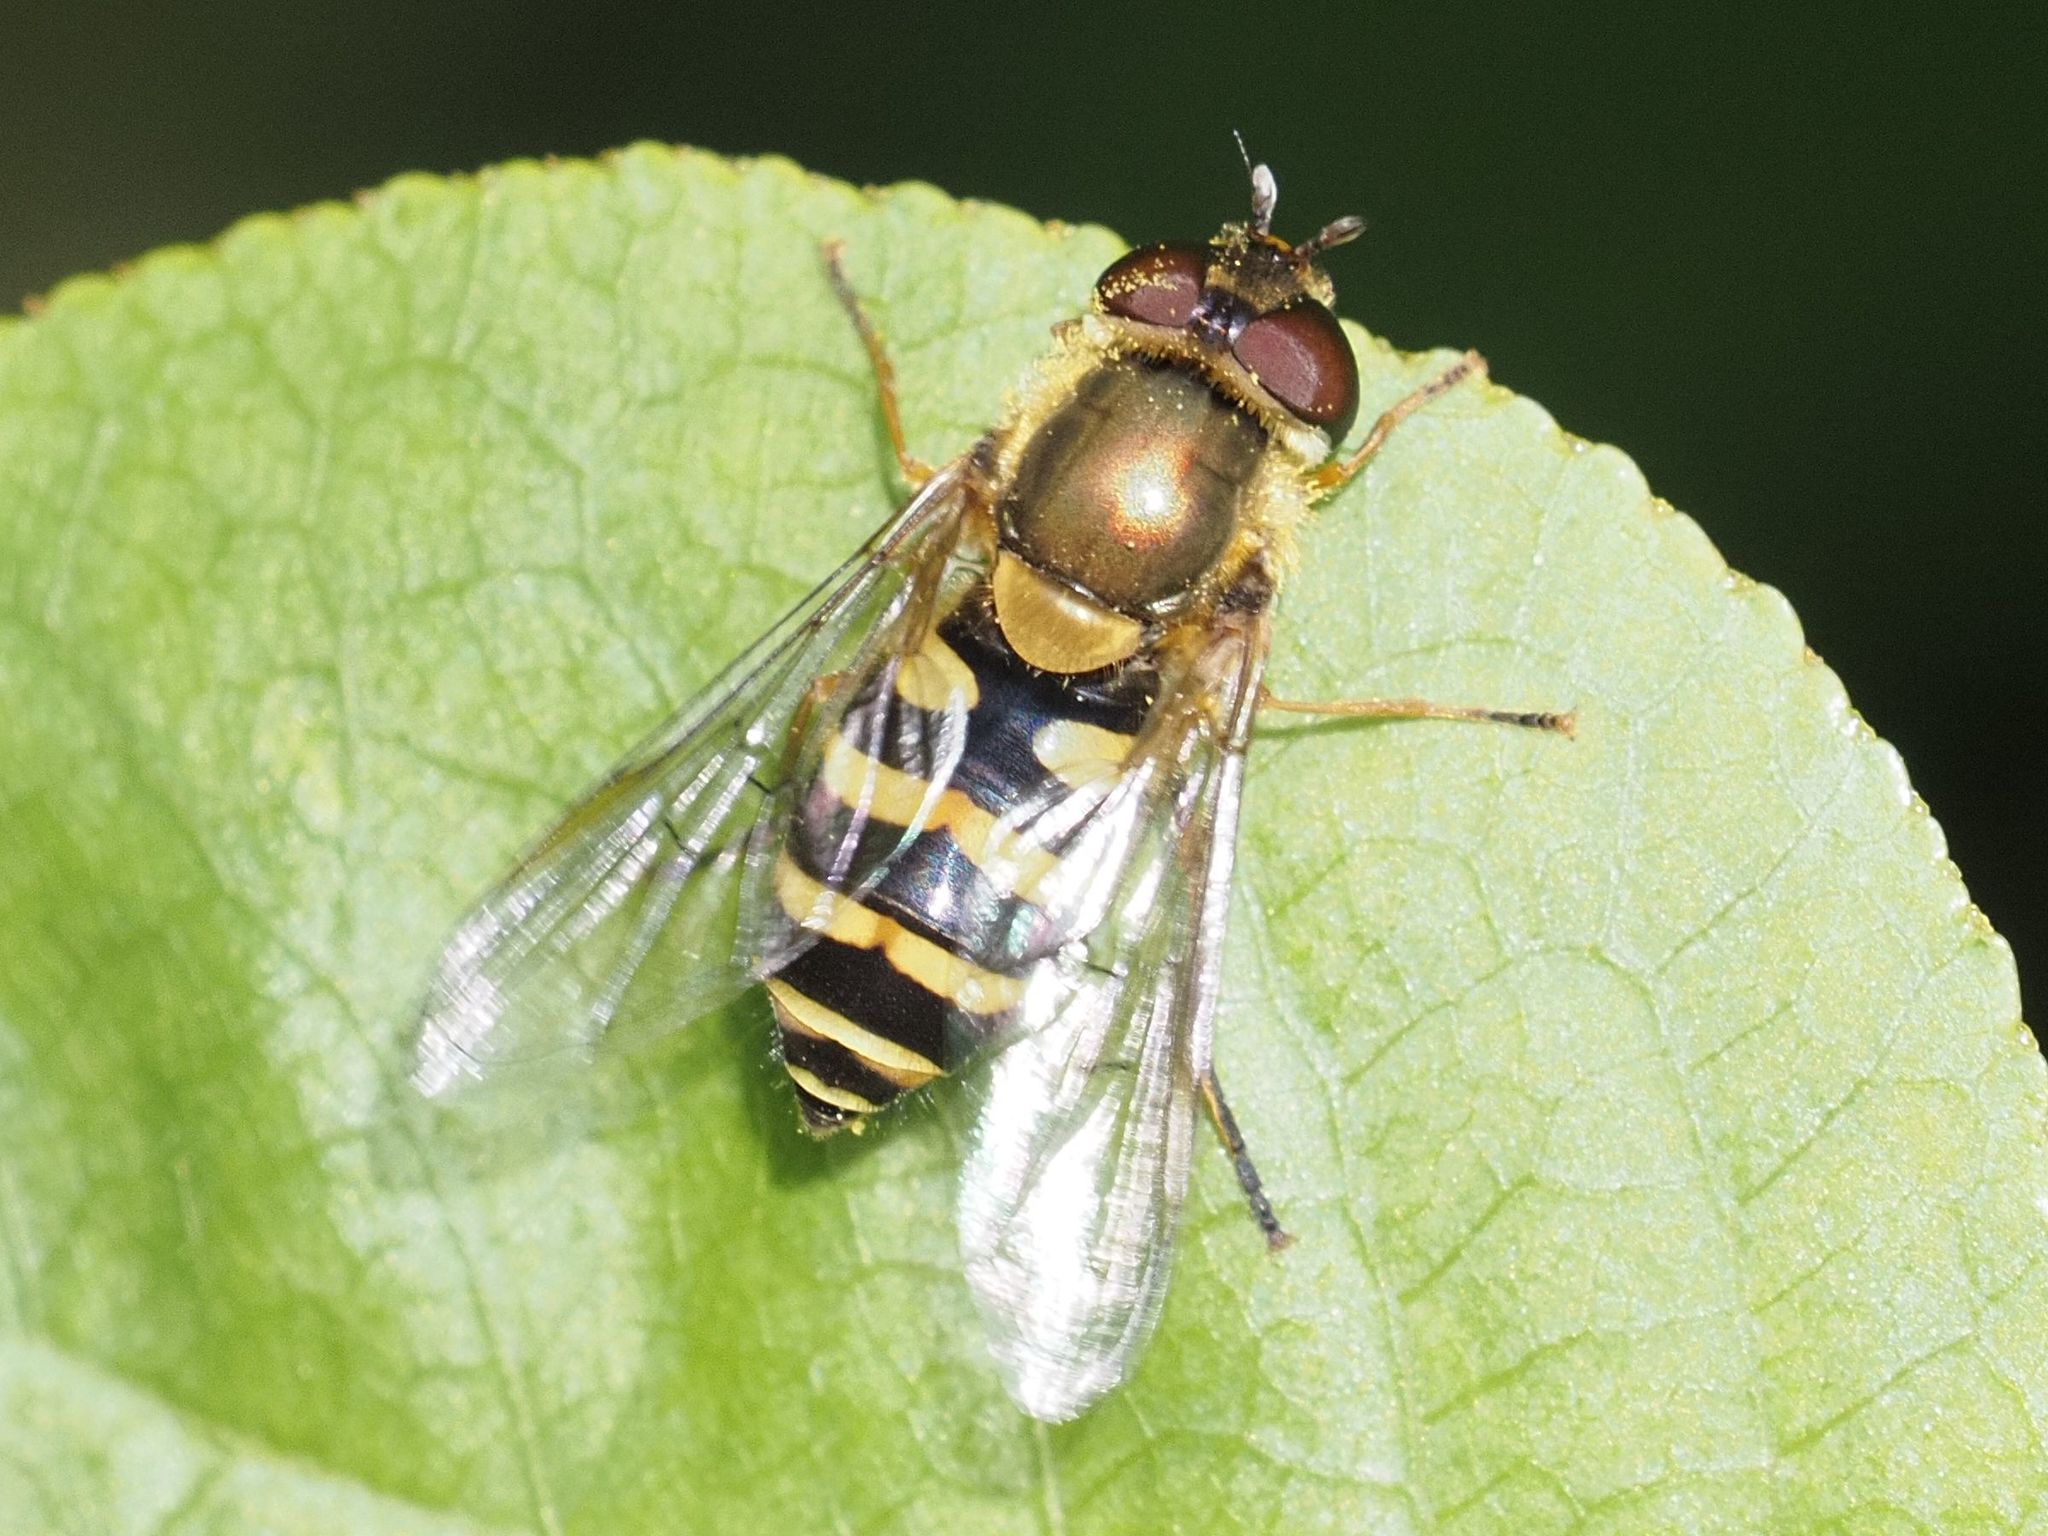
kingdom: Animalia
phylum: Arthropoda
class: Insecta
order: Diptera
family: Syrphidae
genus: Syrphus
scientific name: Syrphus
